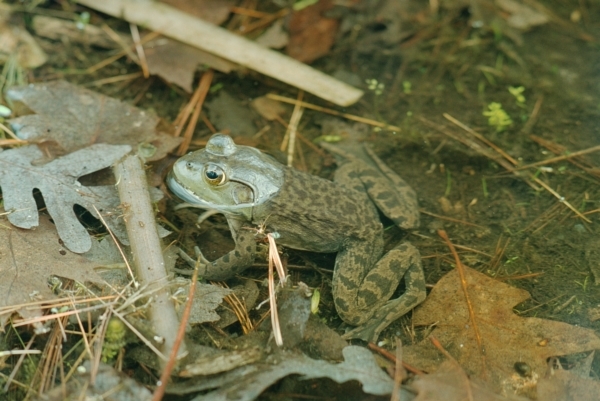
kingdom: Animalia
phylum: Chordata
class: Amphibia
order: Anura
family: Ranidae
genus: Lithobates
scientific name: Lithobates catesbeianus
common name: American bullfrog
